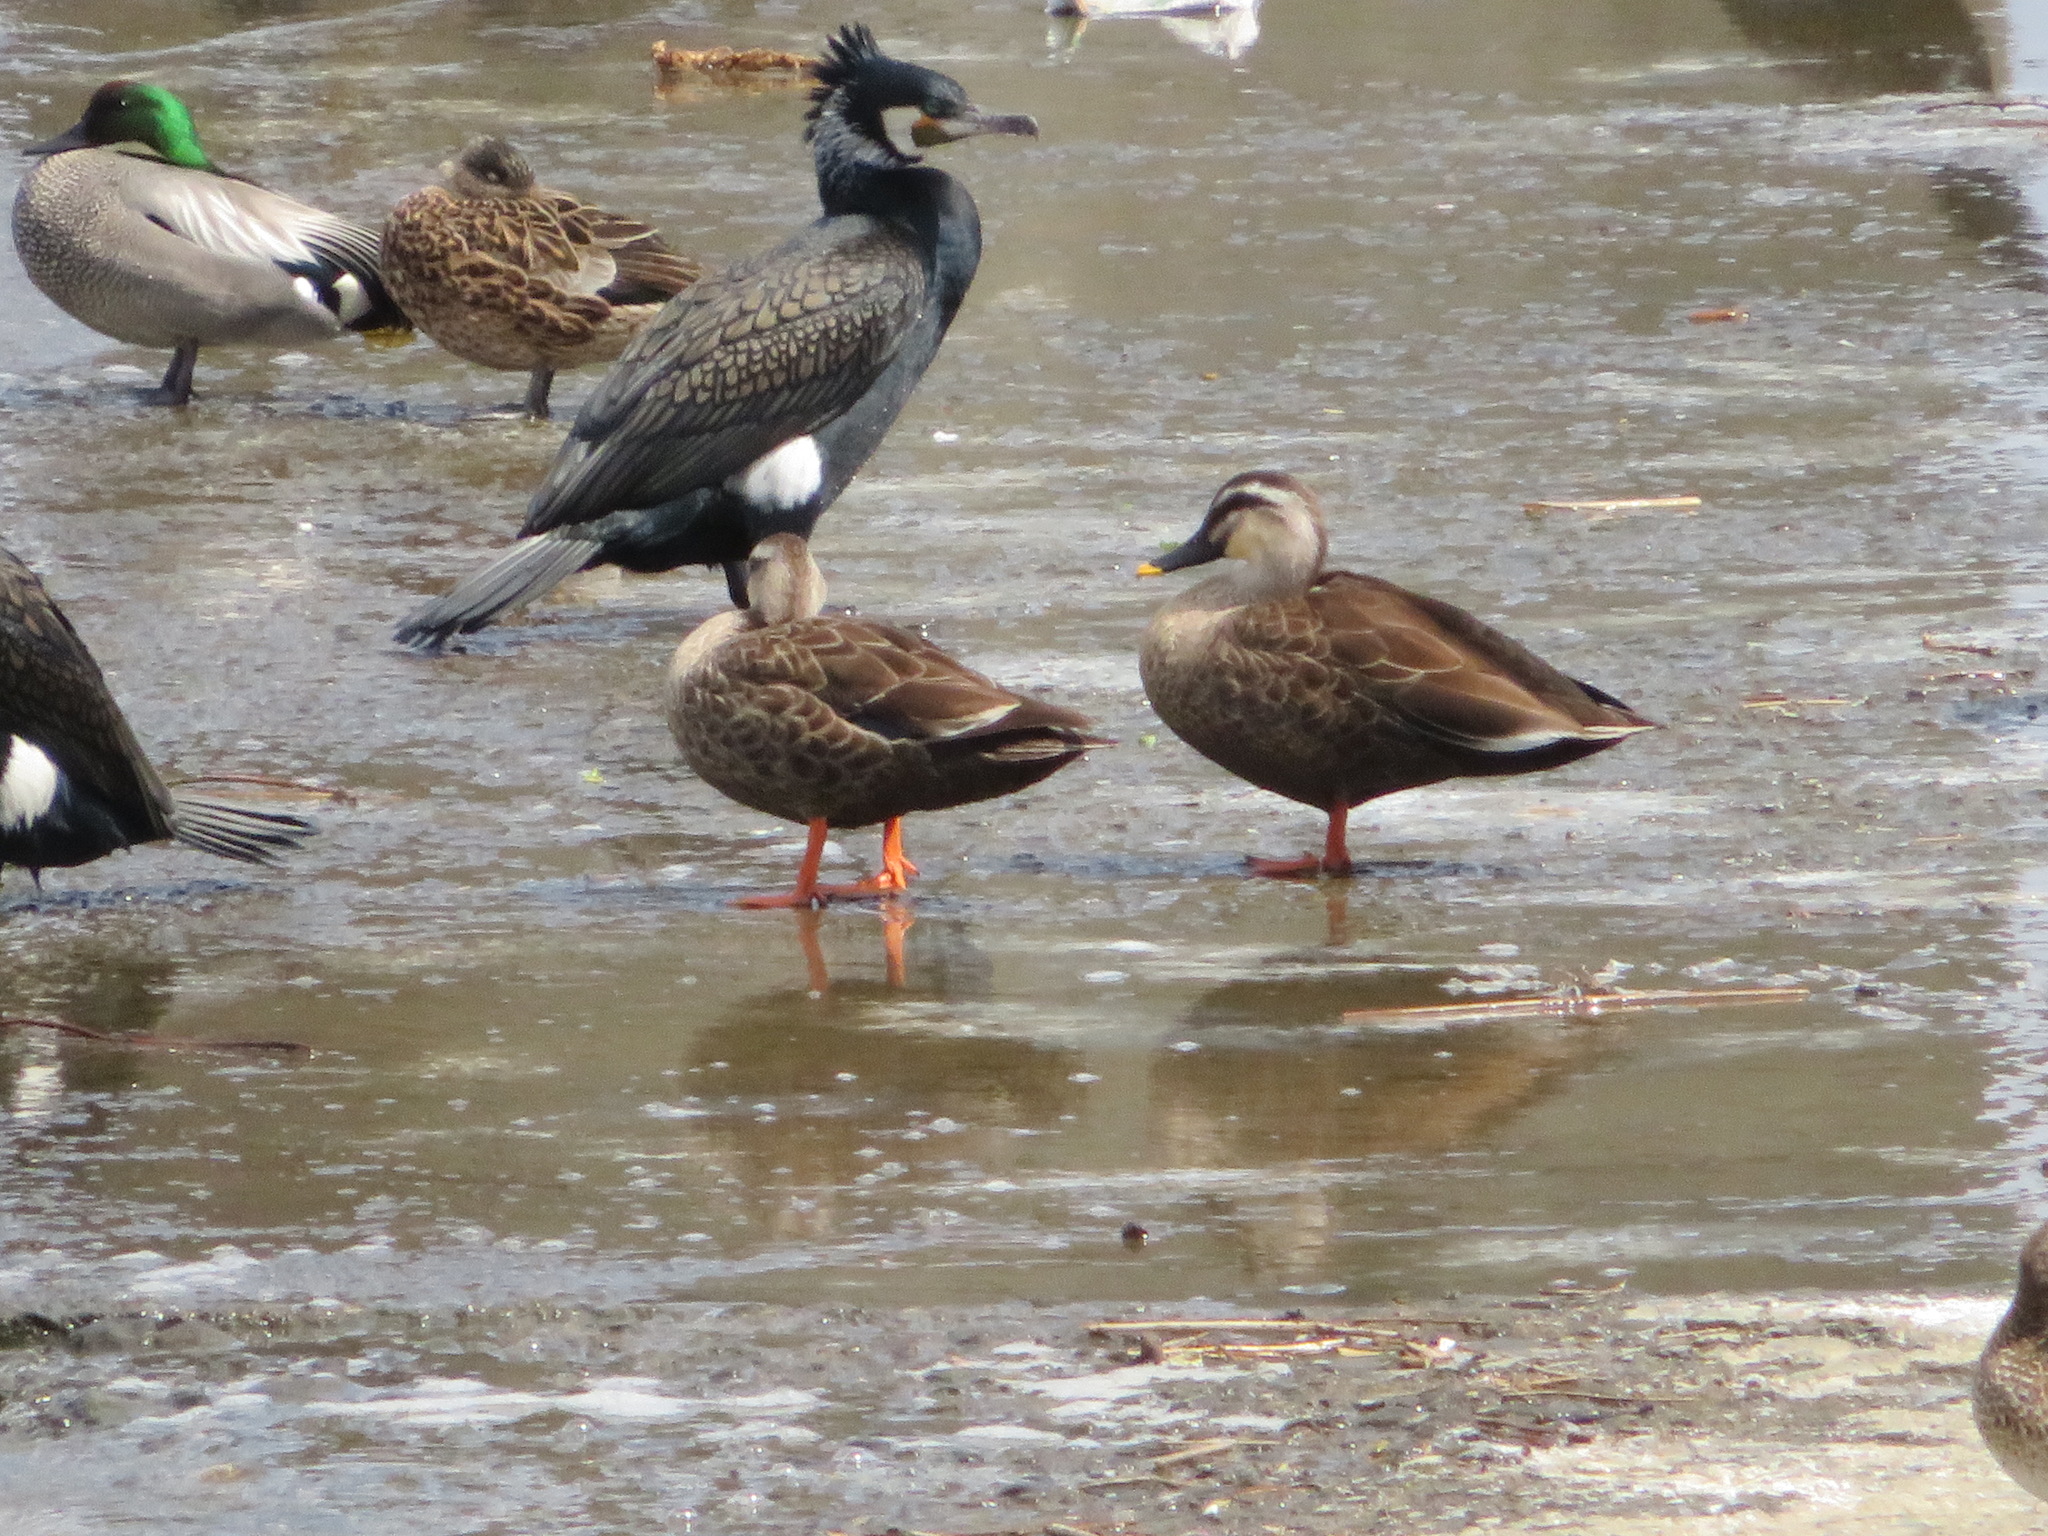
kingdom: Animalia
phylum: Chordata
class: Aves
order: Anseriformes
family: Anatidae
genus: Anas
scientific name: Anas zonorhyncha
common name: Eastern spot-billed duck
